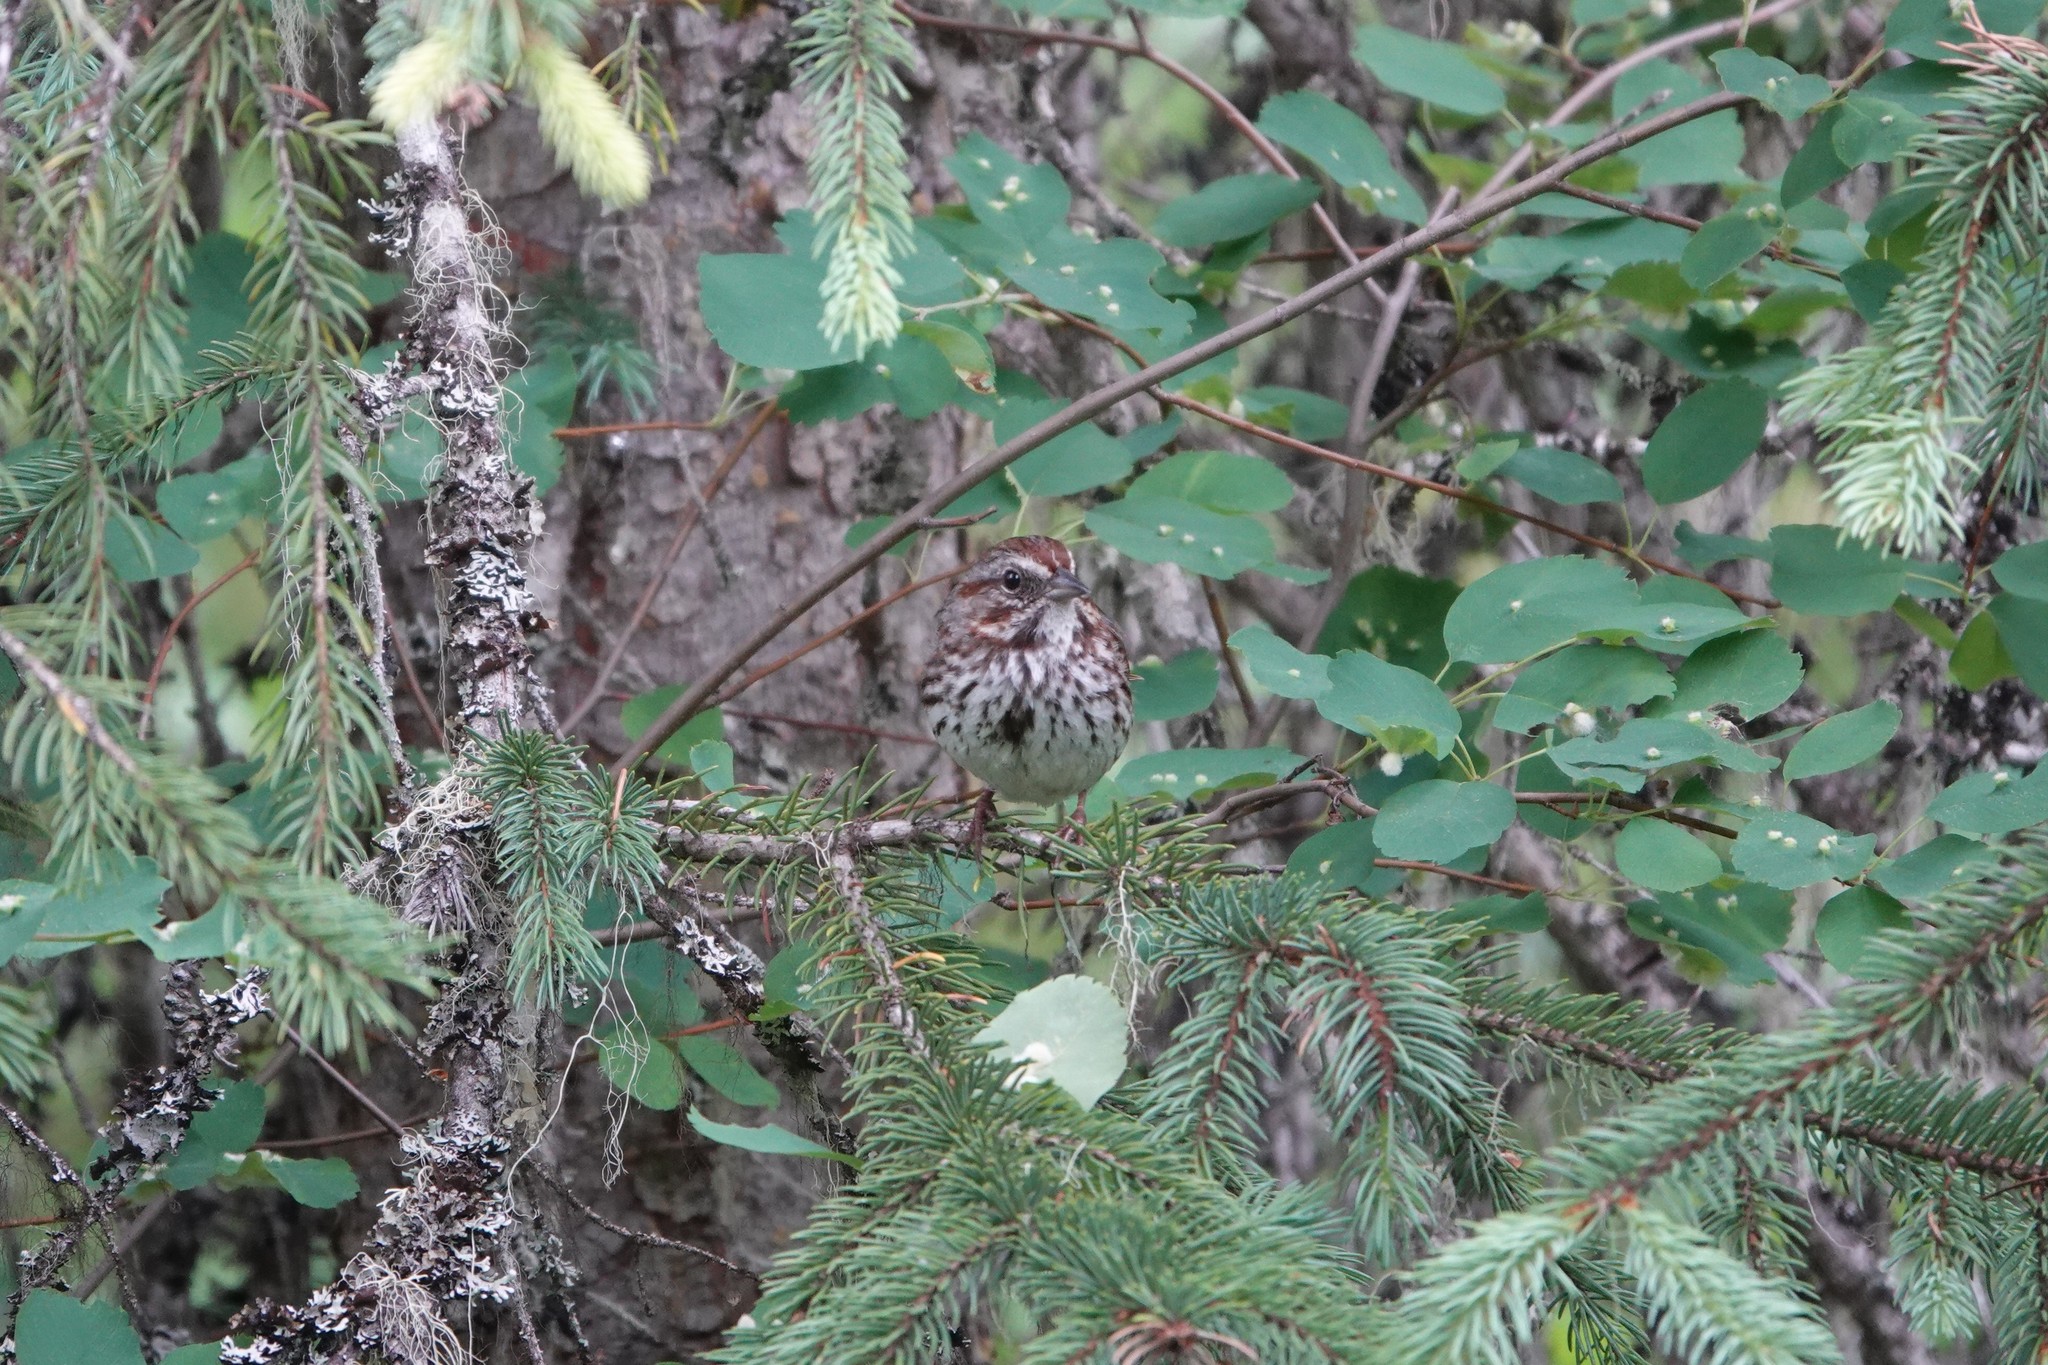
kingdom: Animalia
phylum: Chordata
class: Aves
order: Passeriformes
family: Passerellidae
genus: Melospiza
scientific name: Melospiza melodia
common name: Song sparrow
